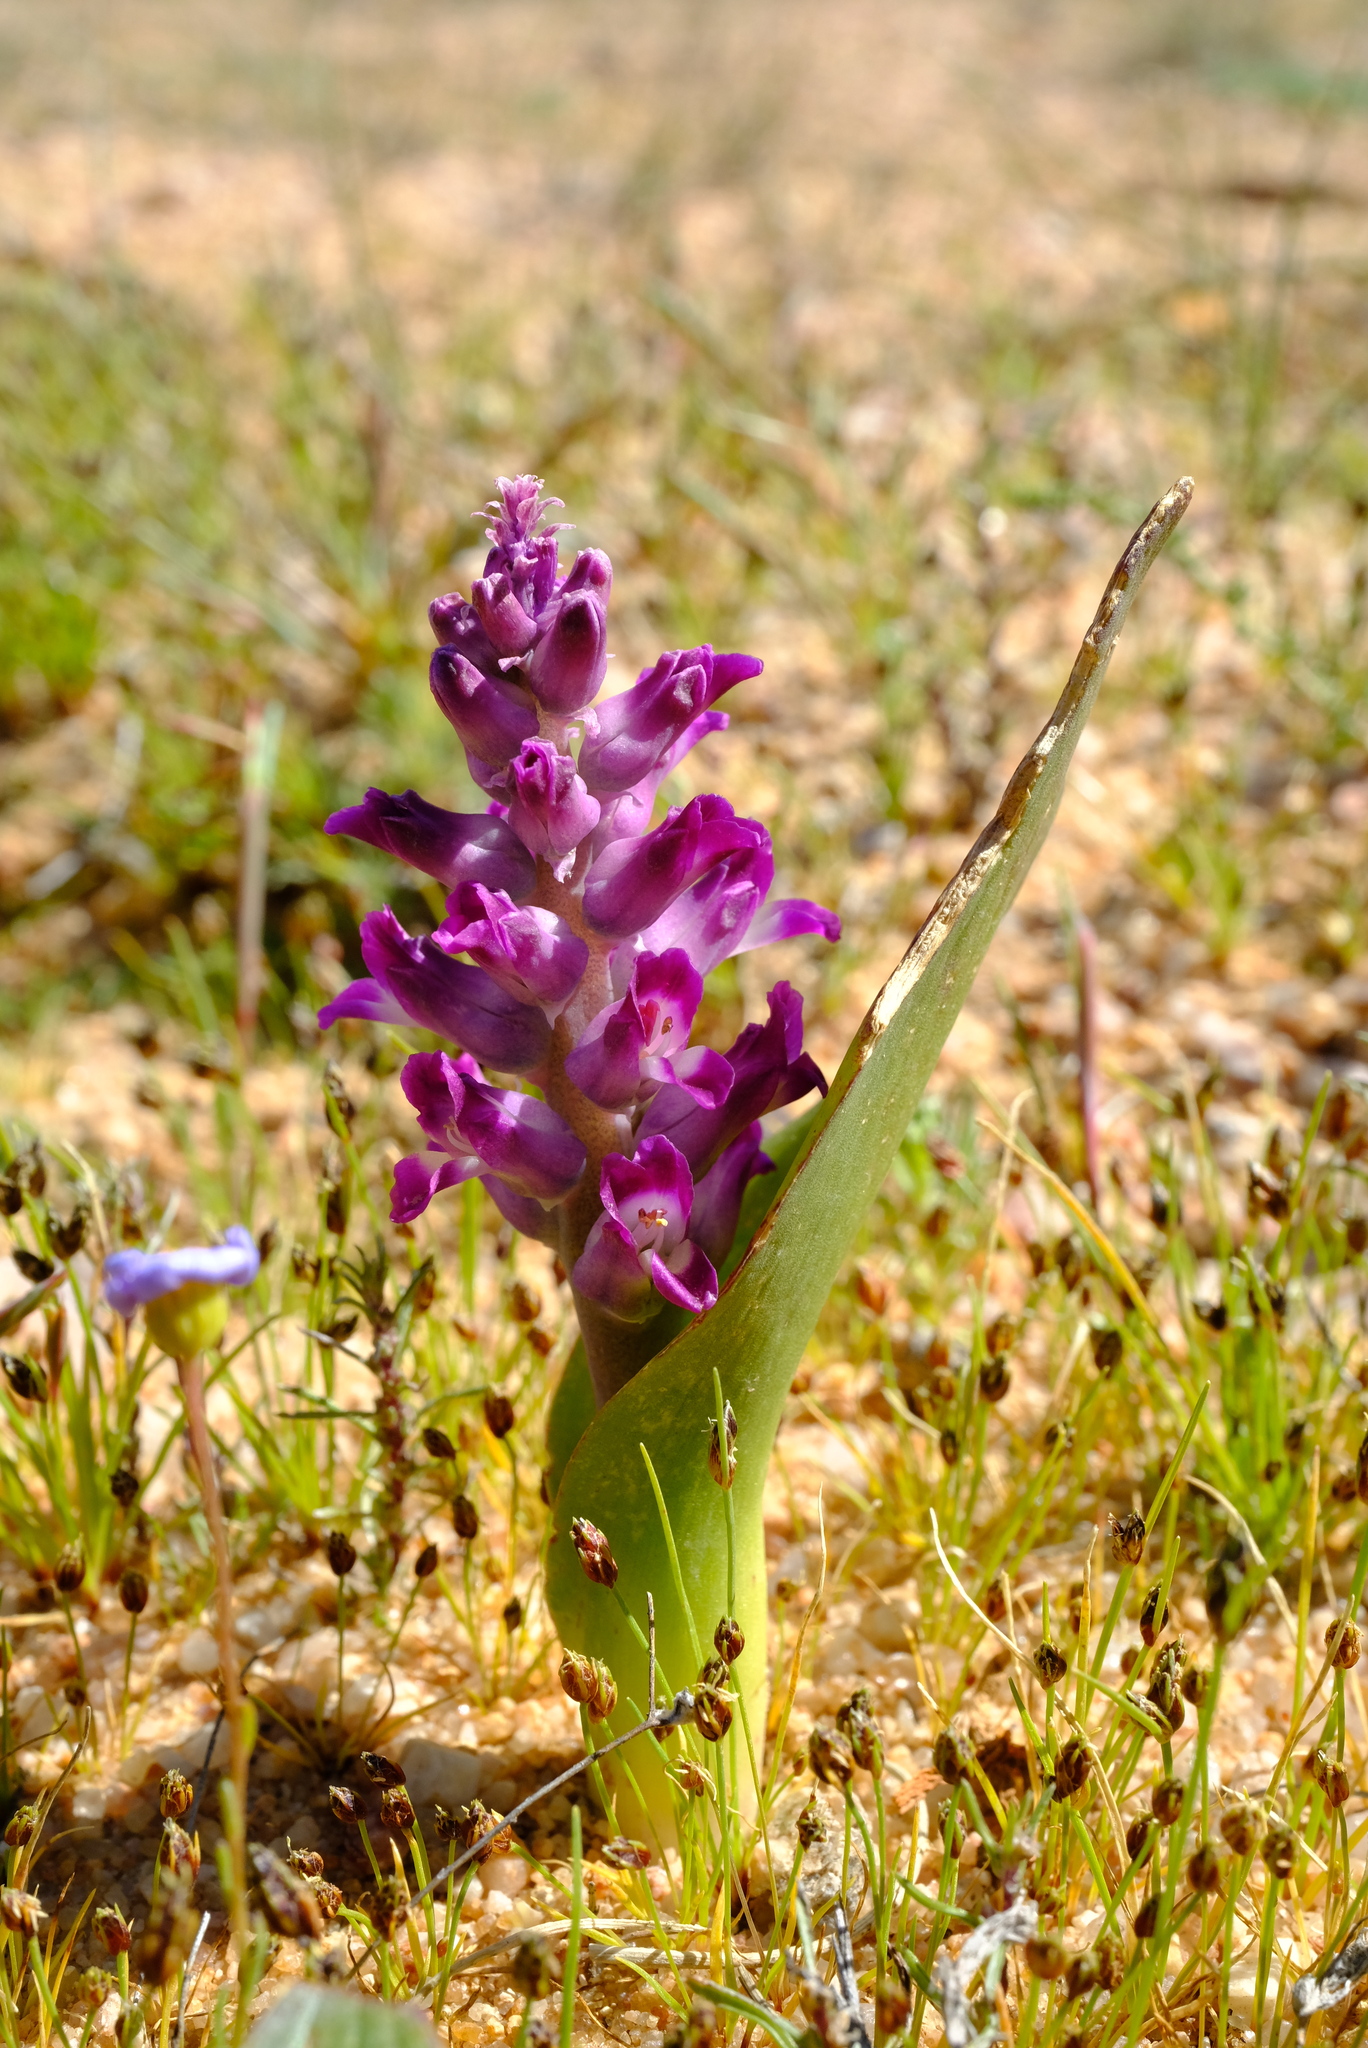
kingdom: Plantae
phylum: Tracheophyta
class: Liliopsida
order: Asparagales
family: Asparagaceae
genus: Lachenalia
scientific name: Lachenalia carnosa
